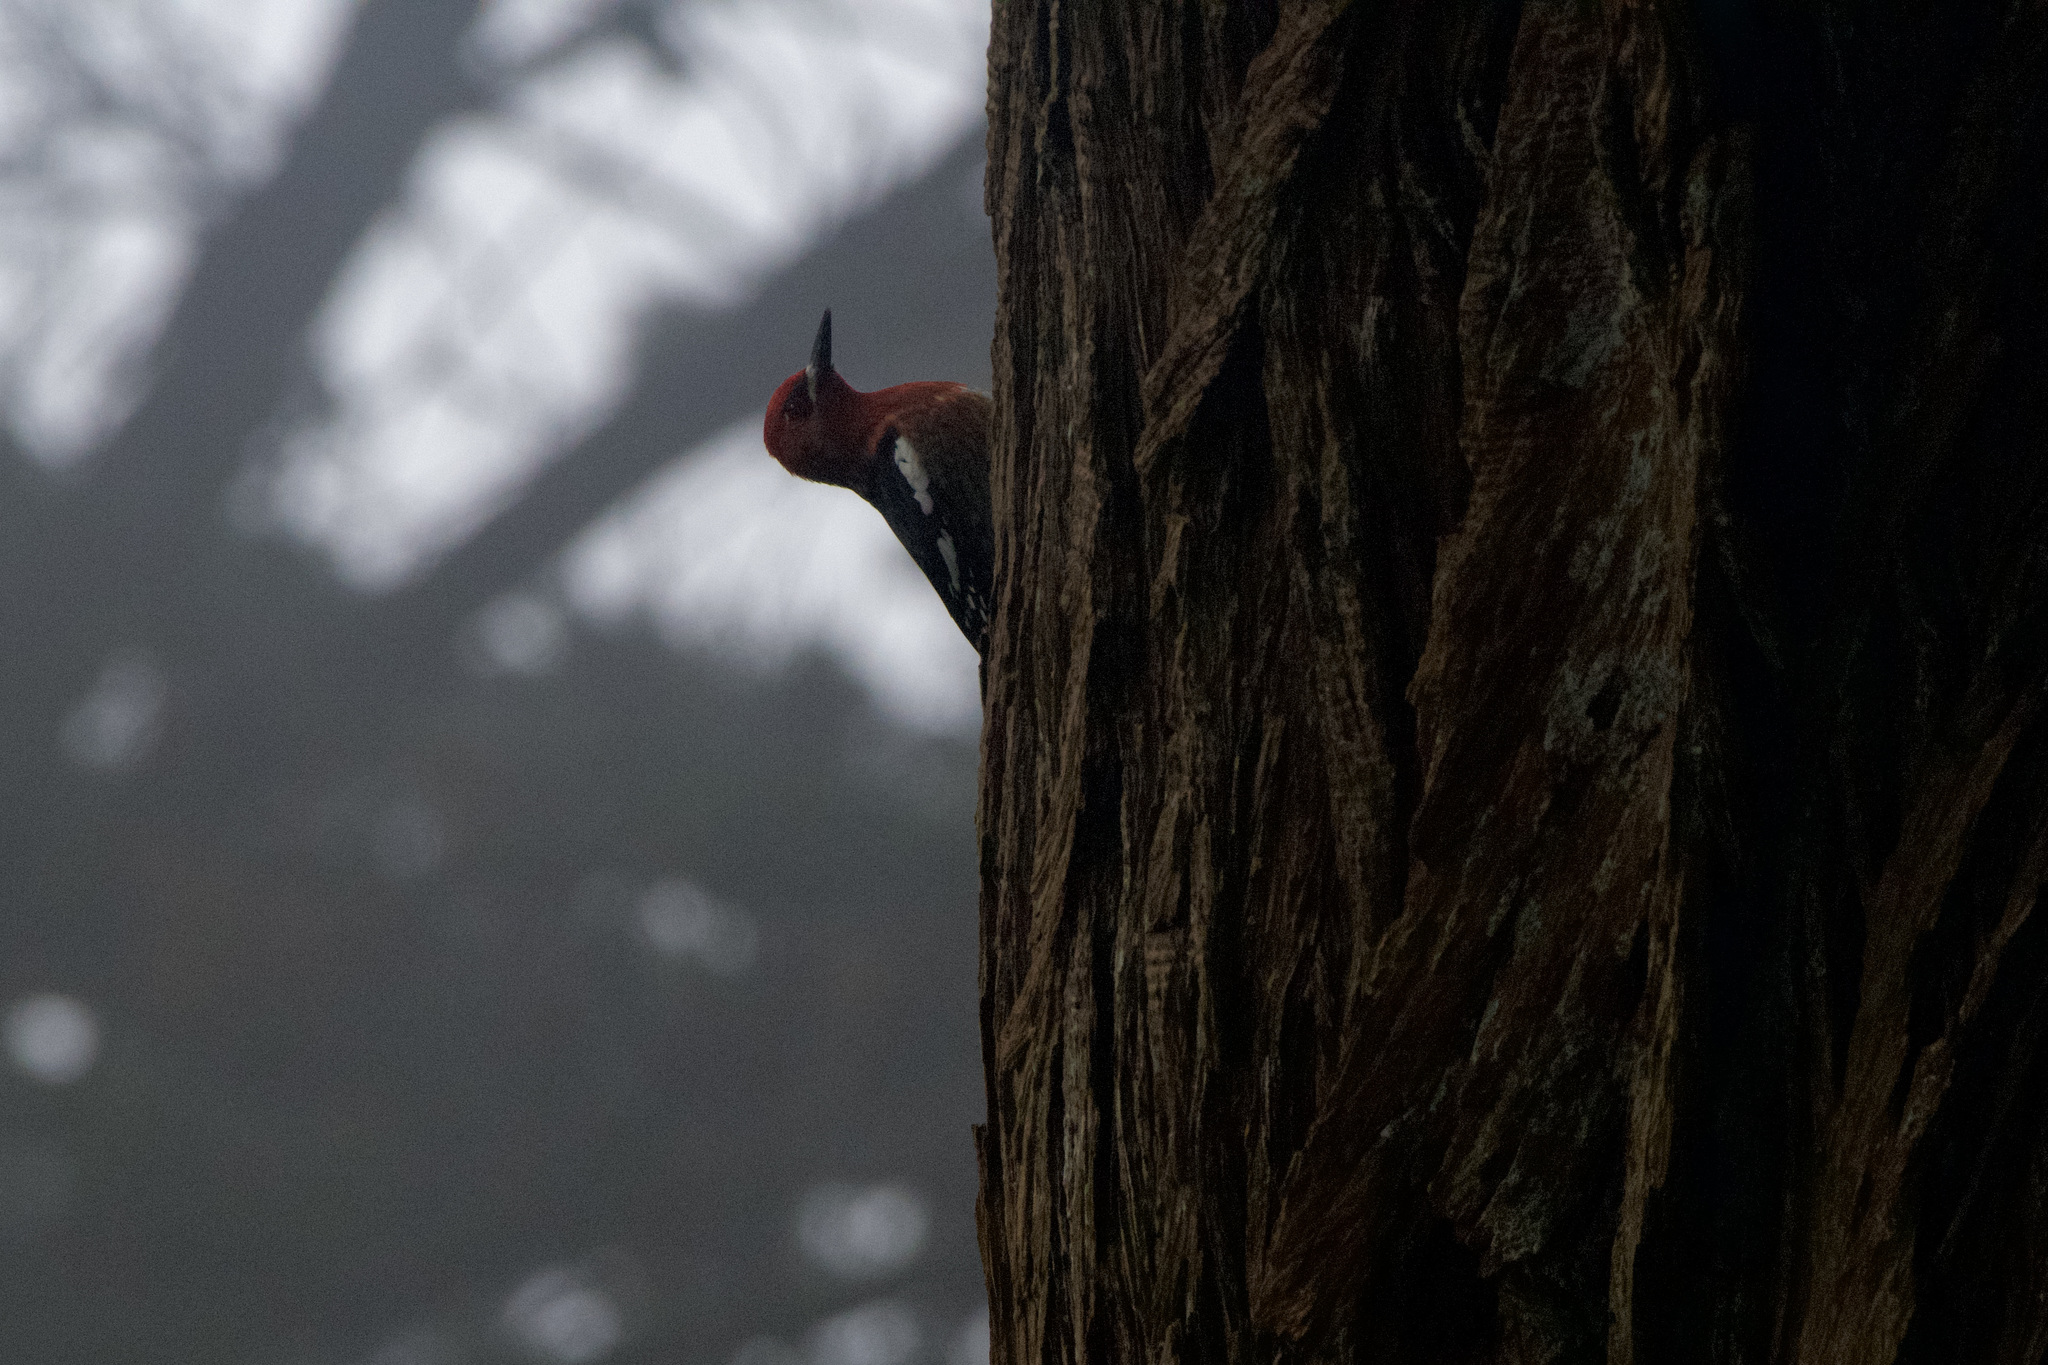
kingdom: Animalia
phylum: Chordata
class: Aves
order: Piciformes
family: Picidae
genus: Sphyrapicus
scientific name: Sphyrapicus ruber
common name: Red-breasted sapsucker
